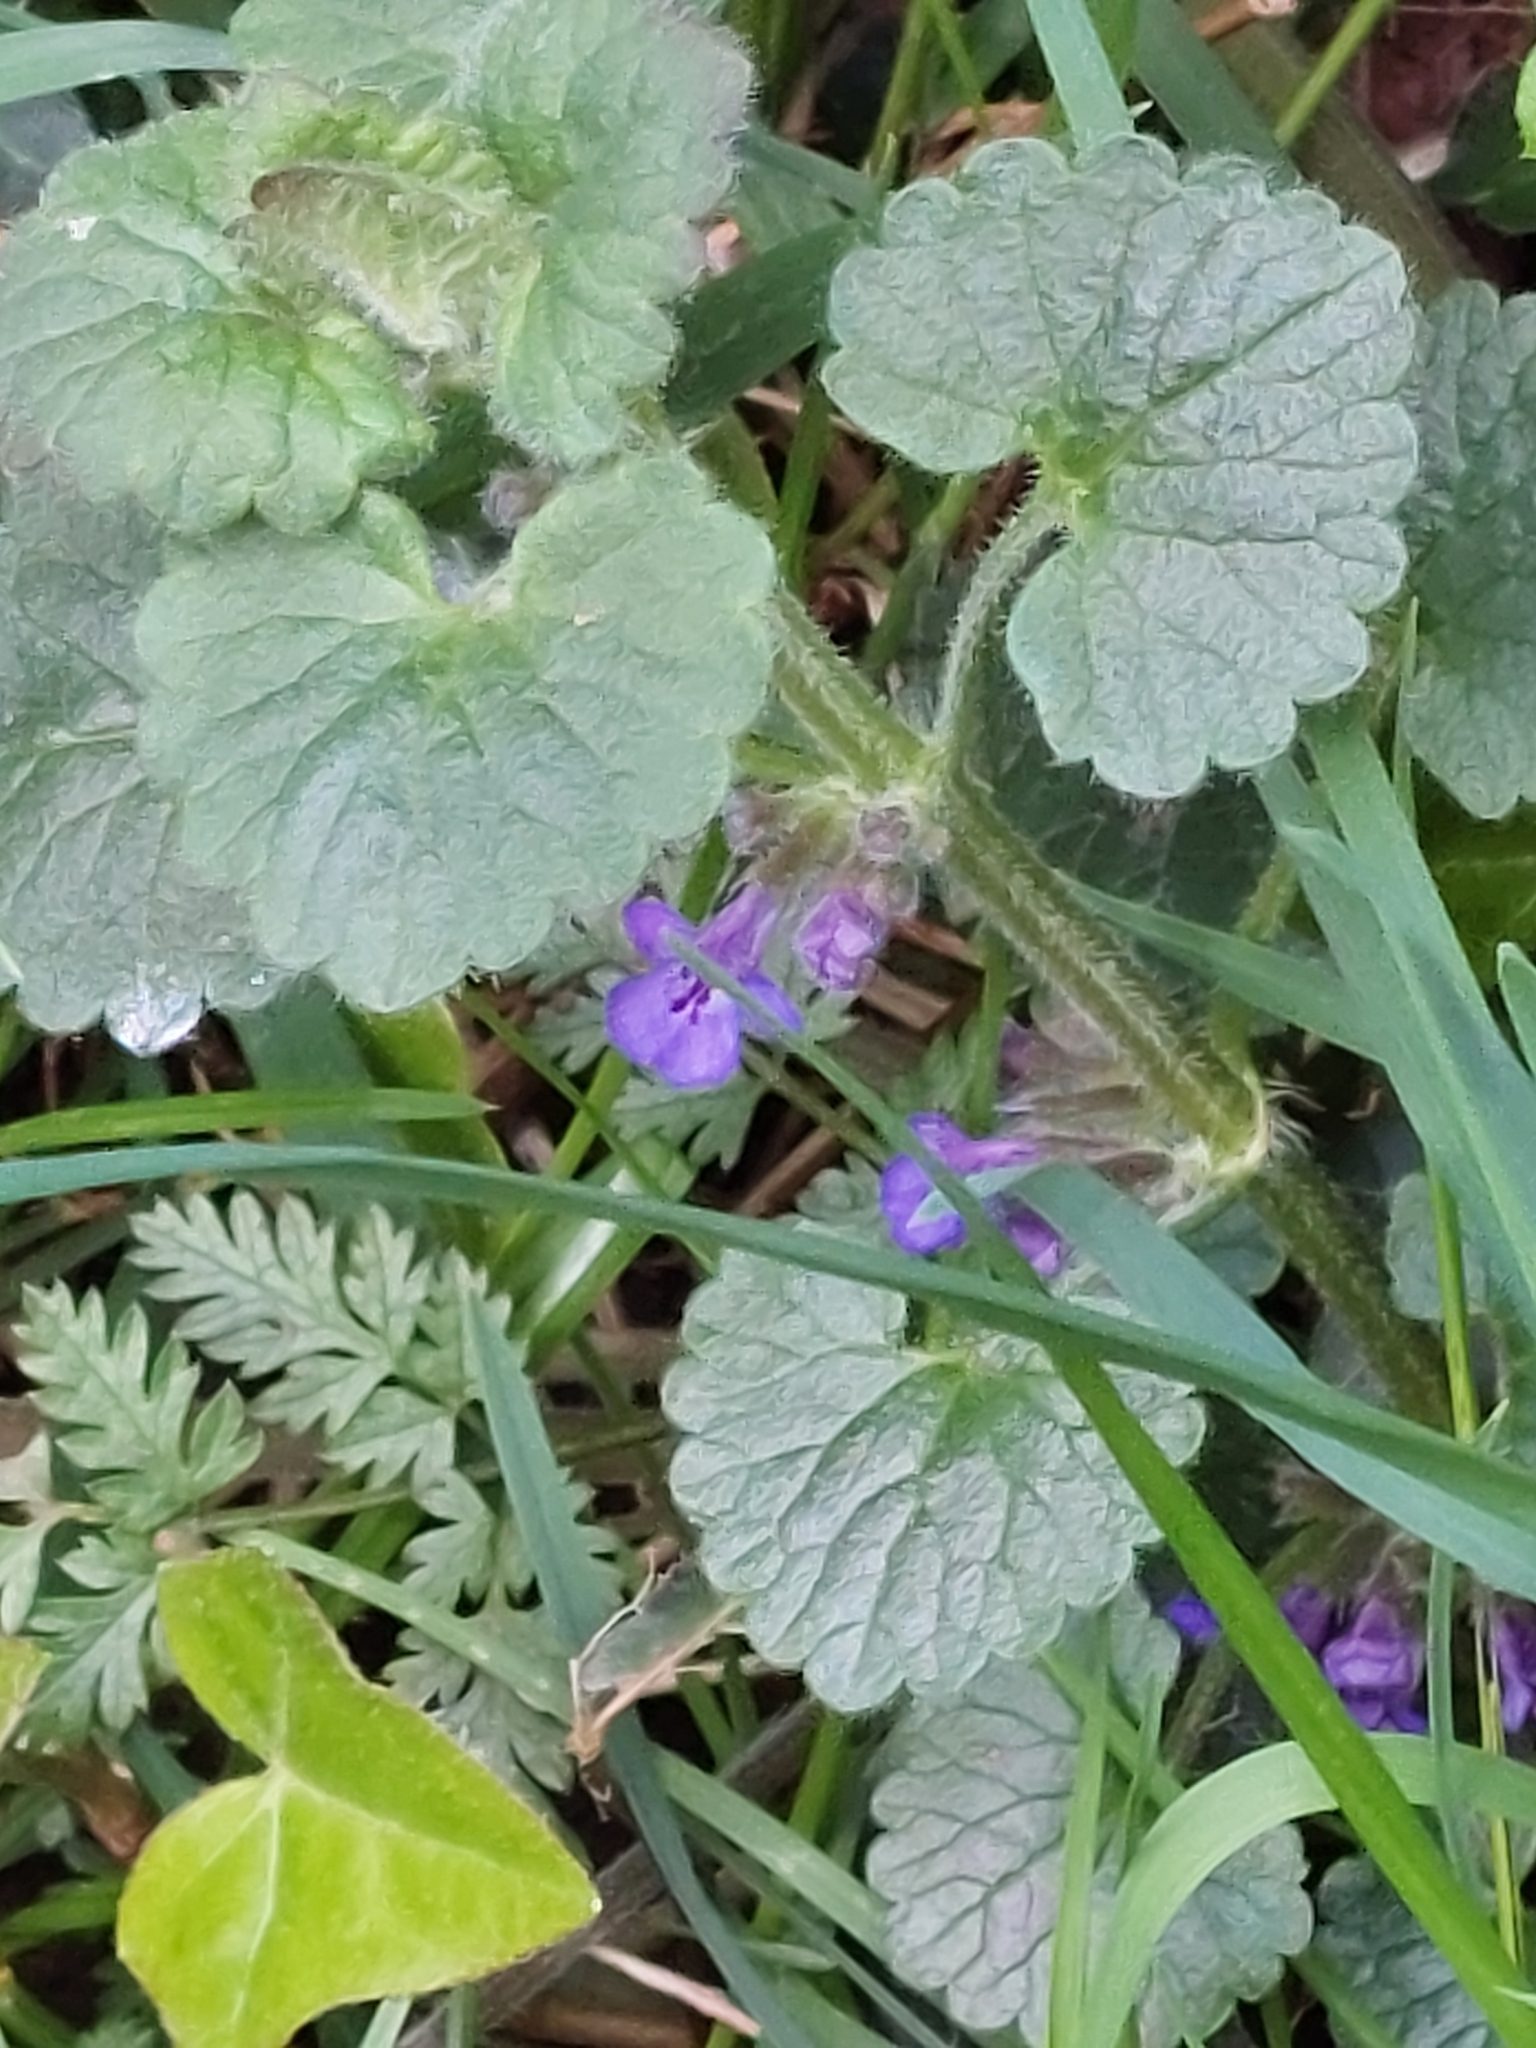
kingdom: Plantae
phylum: Tracheophyta
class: Magnoliopsida
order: Lamiales
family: Lamiaceae
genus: Glechoma
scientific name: Glechoma hederacea
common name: Ground ivy
